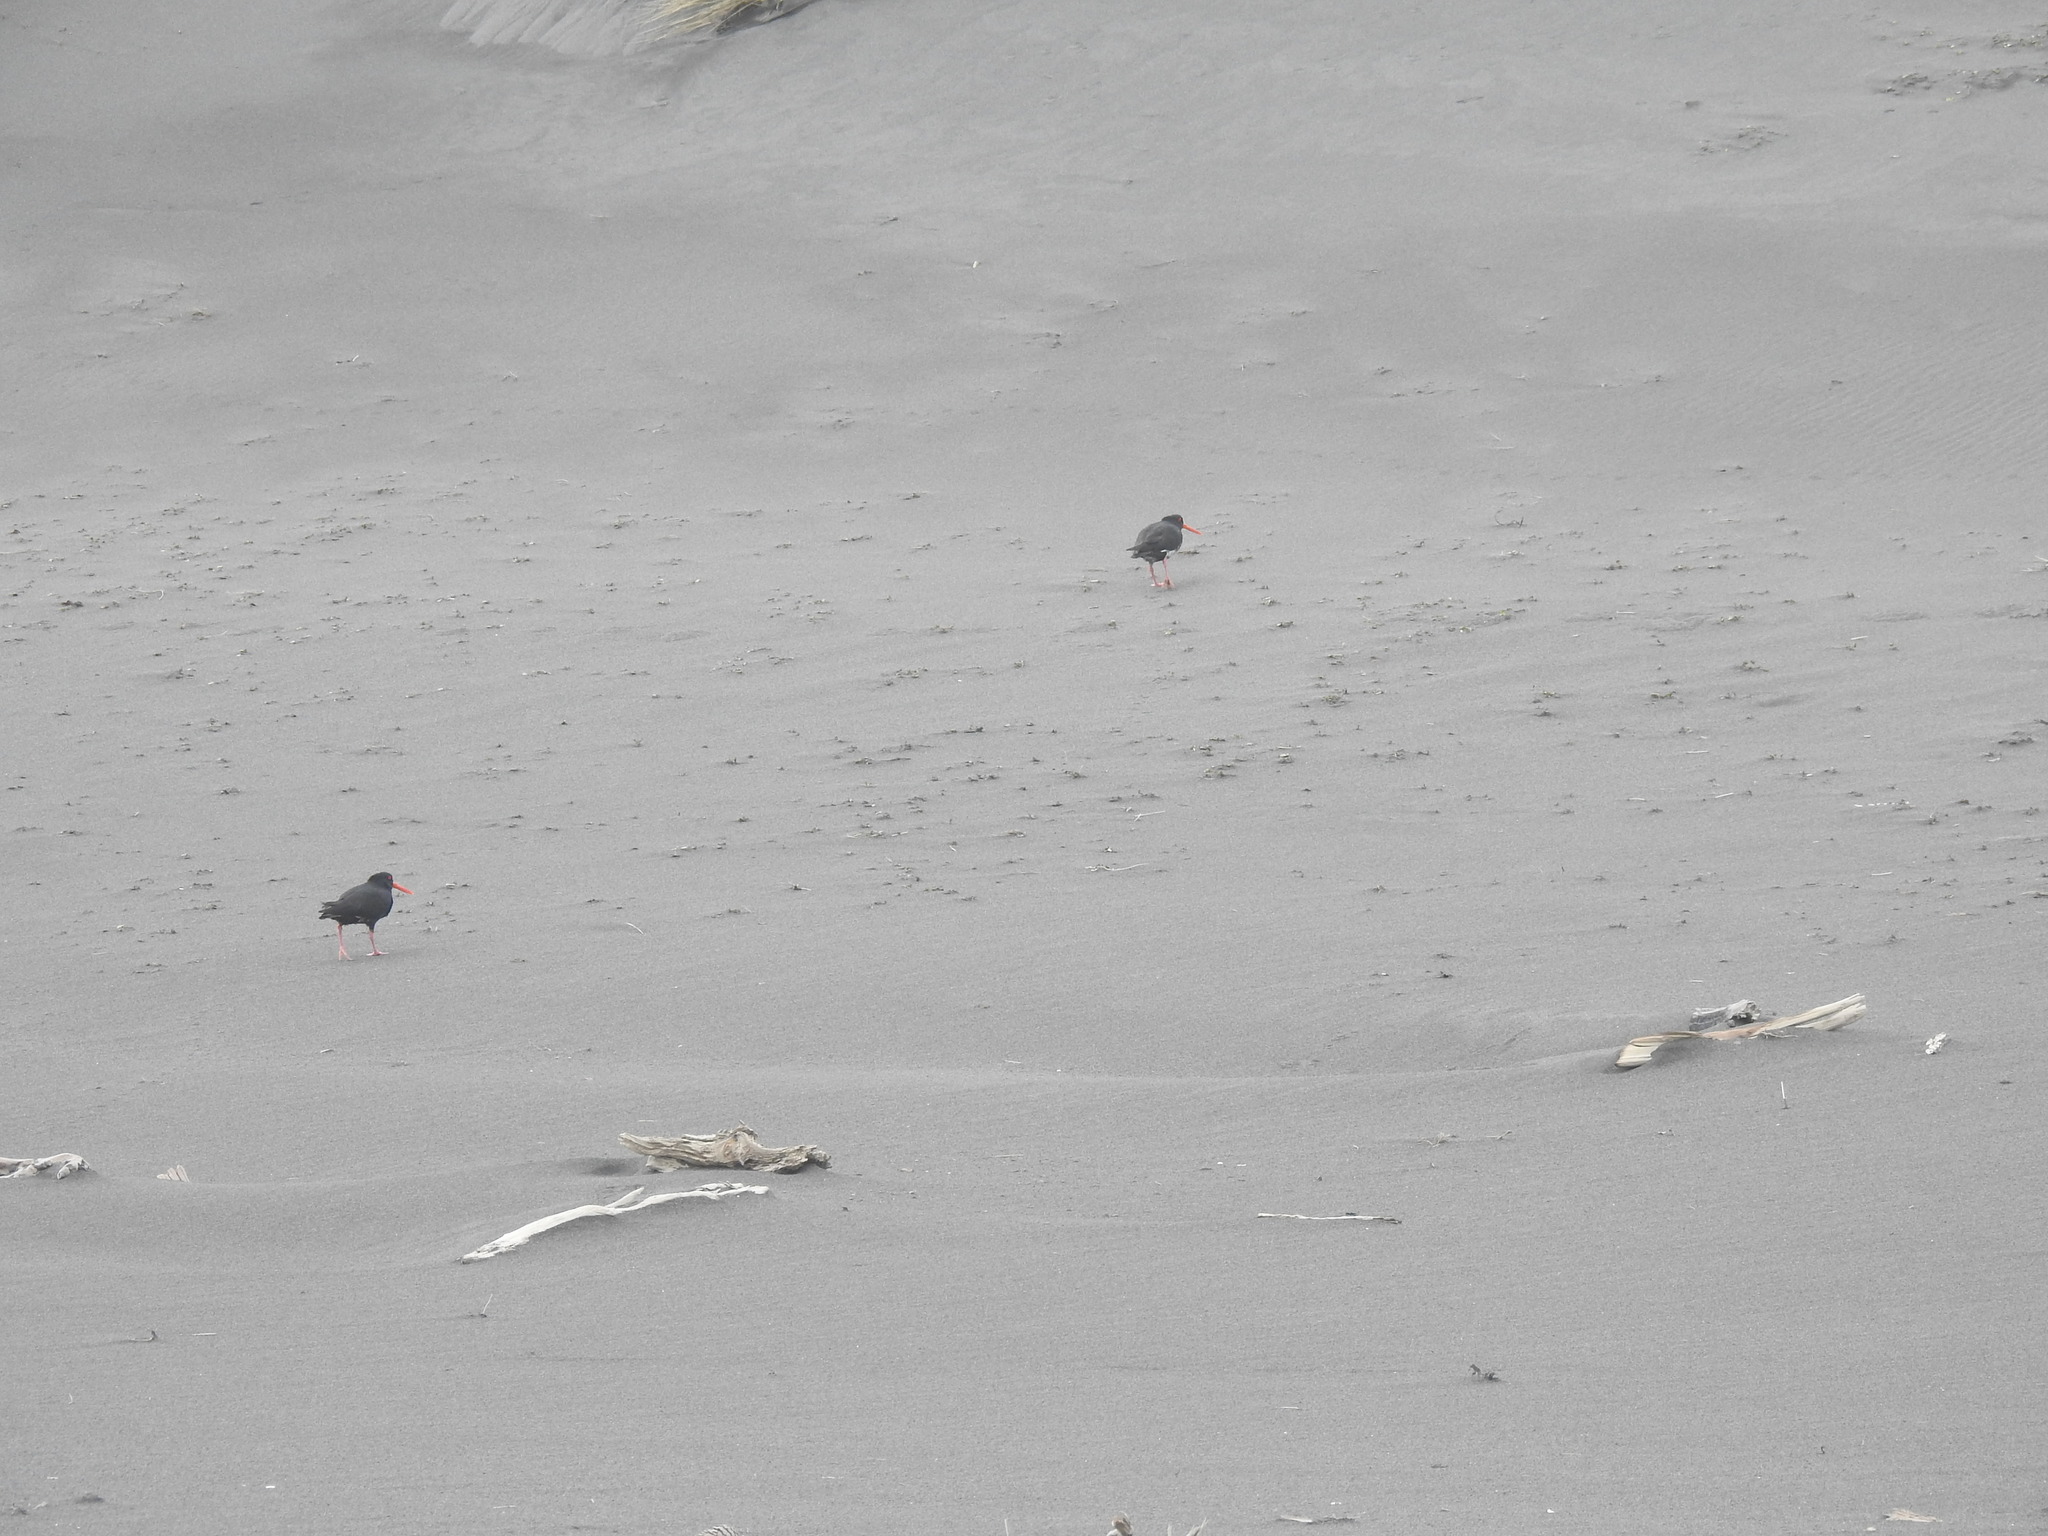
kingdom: Animalia
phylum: Chordata
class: Aves
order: Charadriiformes
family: Haematopodidae
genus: Haematopus
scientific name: Haematopus unicolor
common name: Variable oystercatcher
